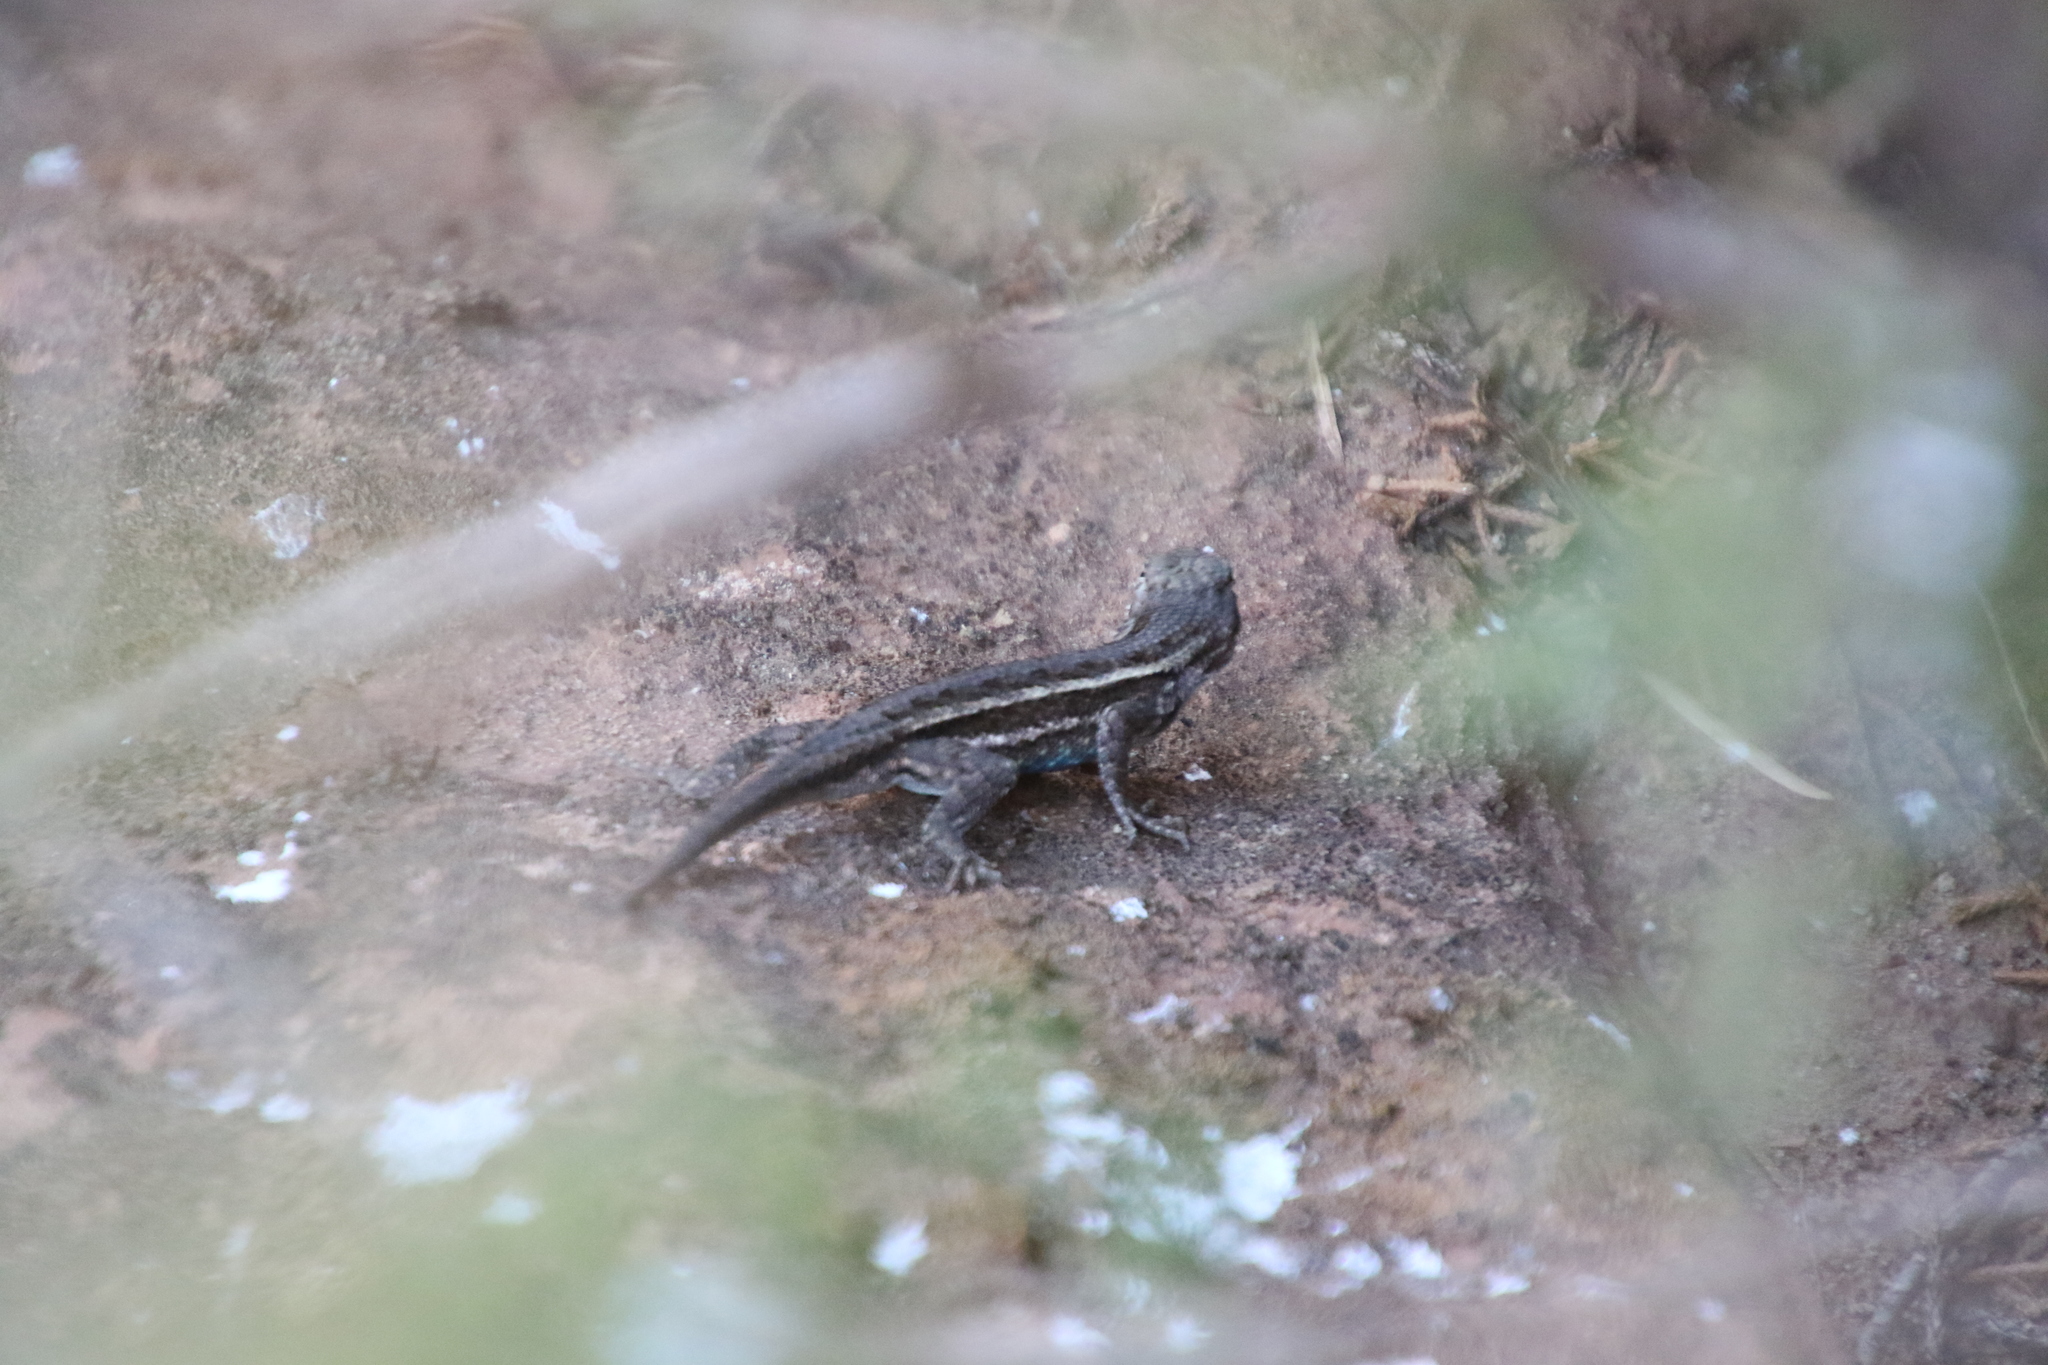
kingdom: Animalia
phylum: Chordata
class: Squamata
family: Phrynosomatidae
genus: Sceloporus
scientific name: Sceloporus consobrinus
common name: Southern prairie lizard
